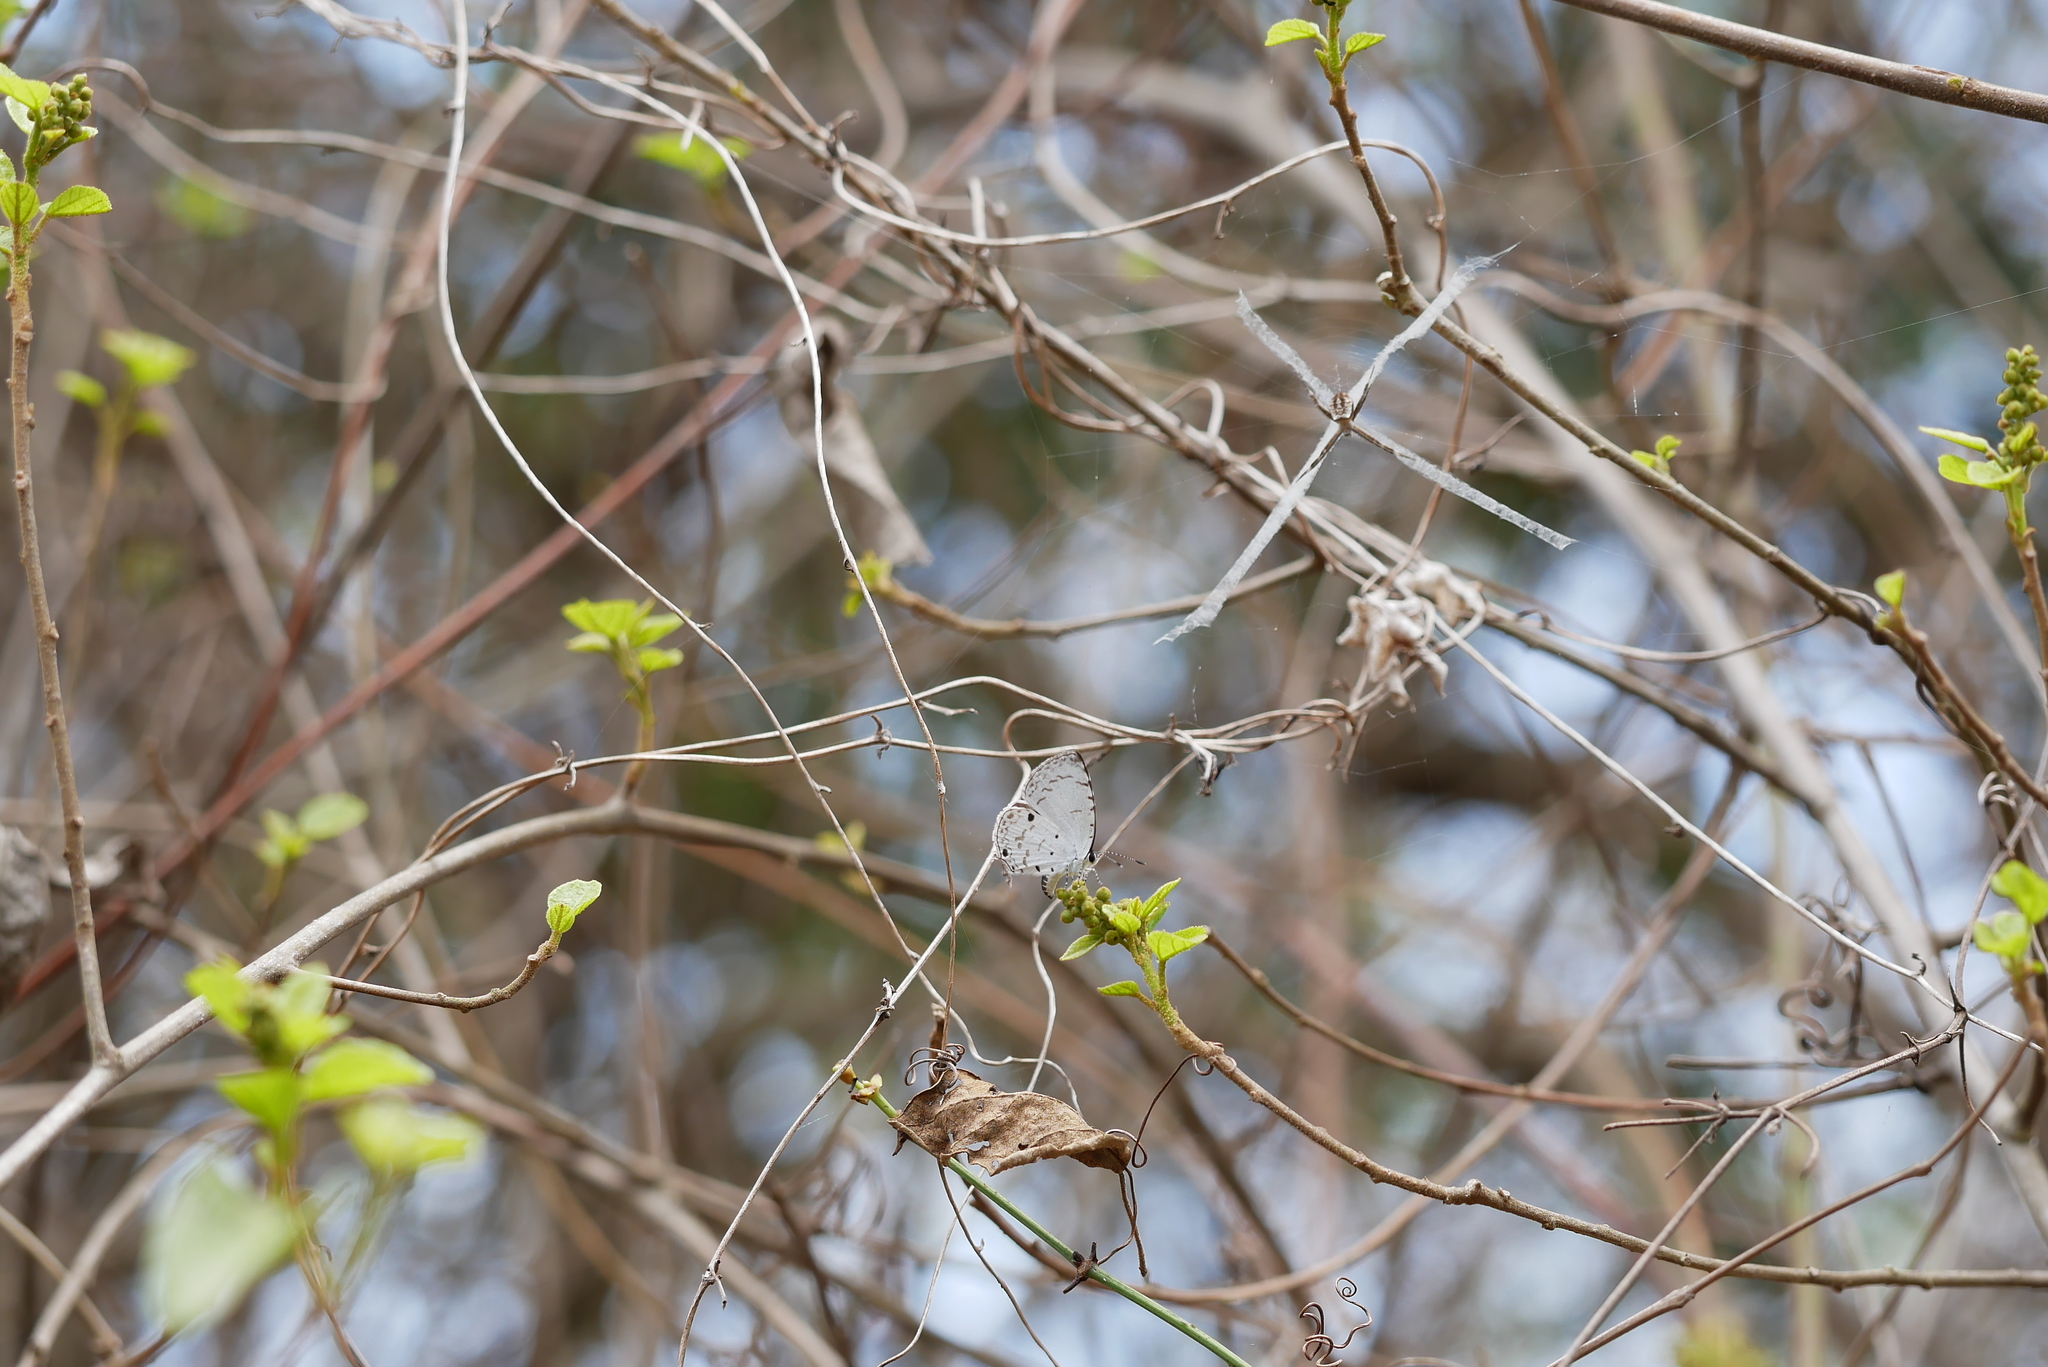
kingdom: Animalia
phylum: Arthropoda
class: Insecta
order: Lepidoptera
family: Lycaenidae
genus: Megisba
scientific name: Megisba malaya
